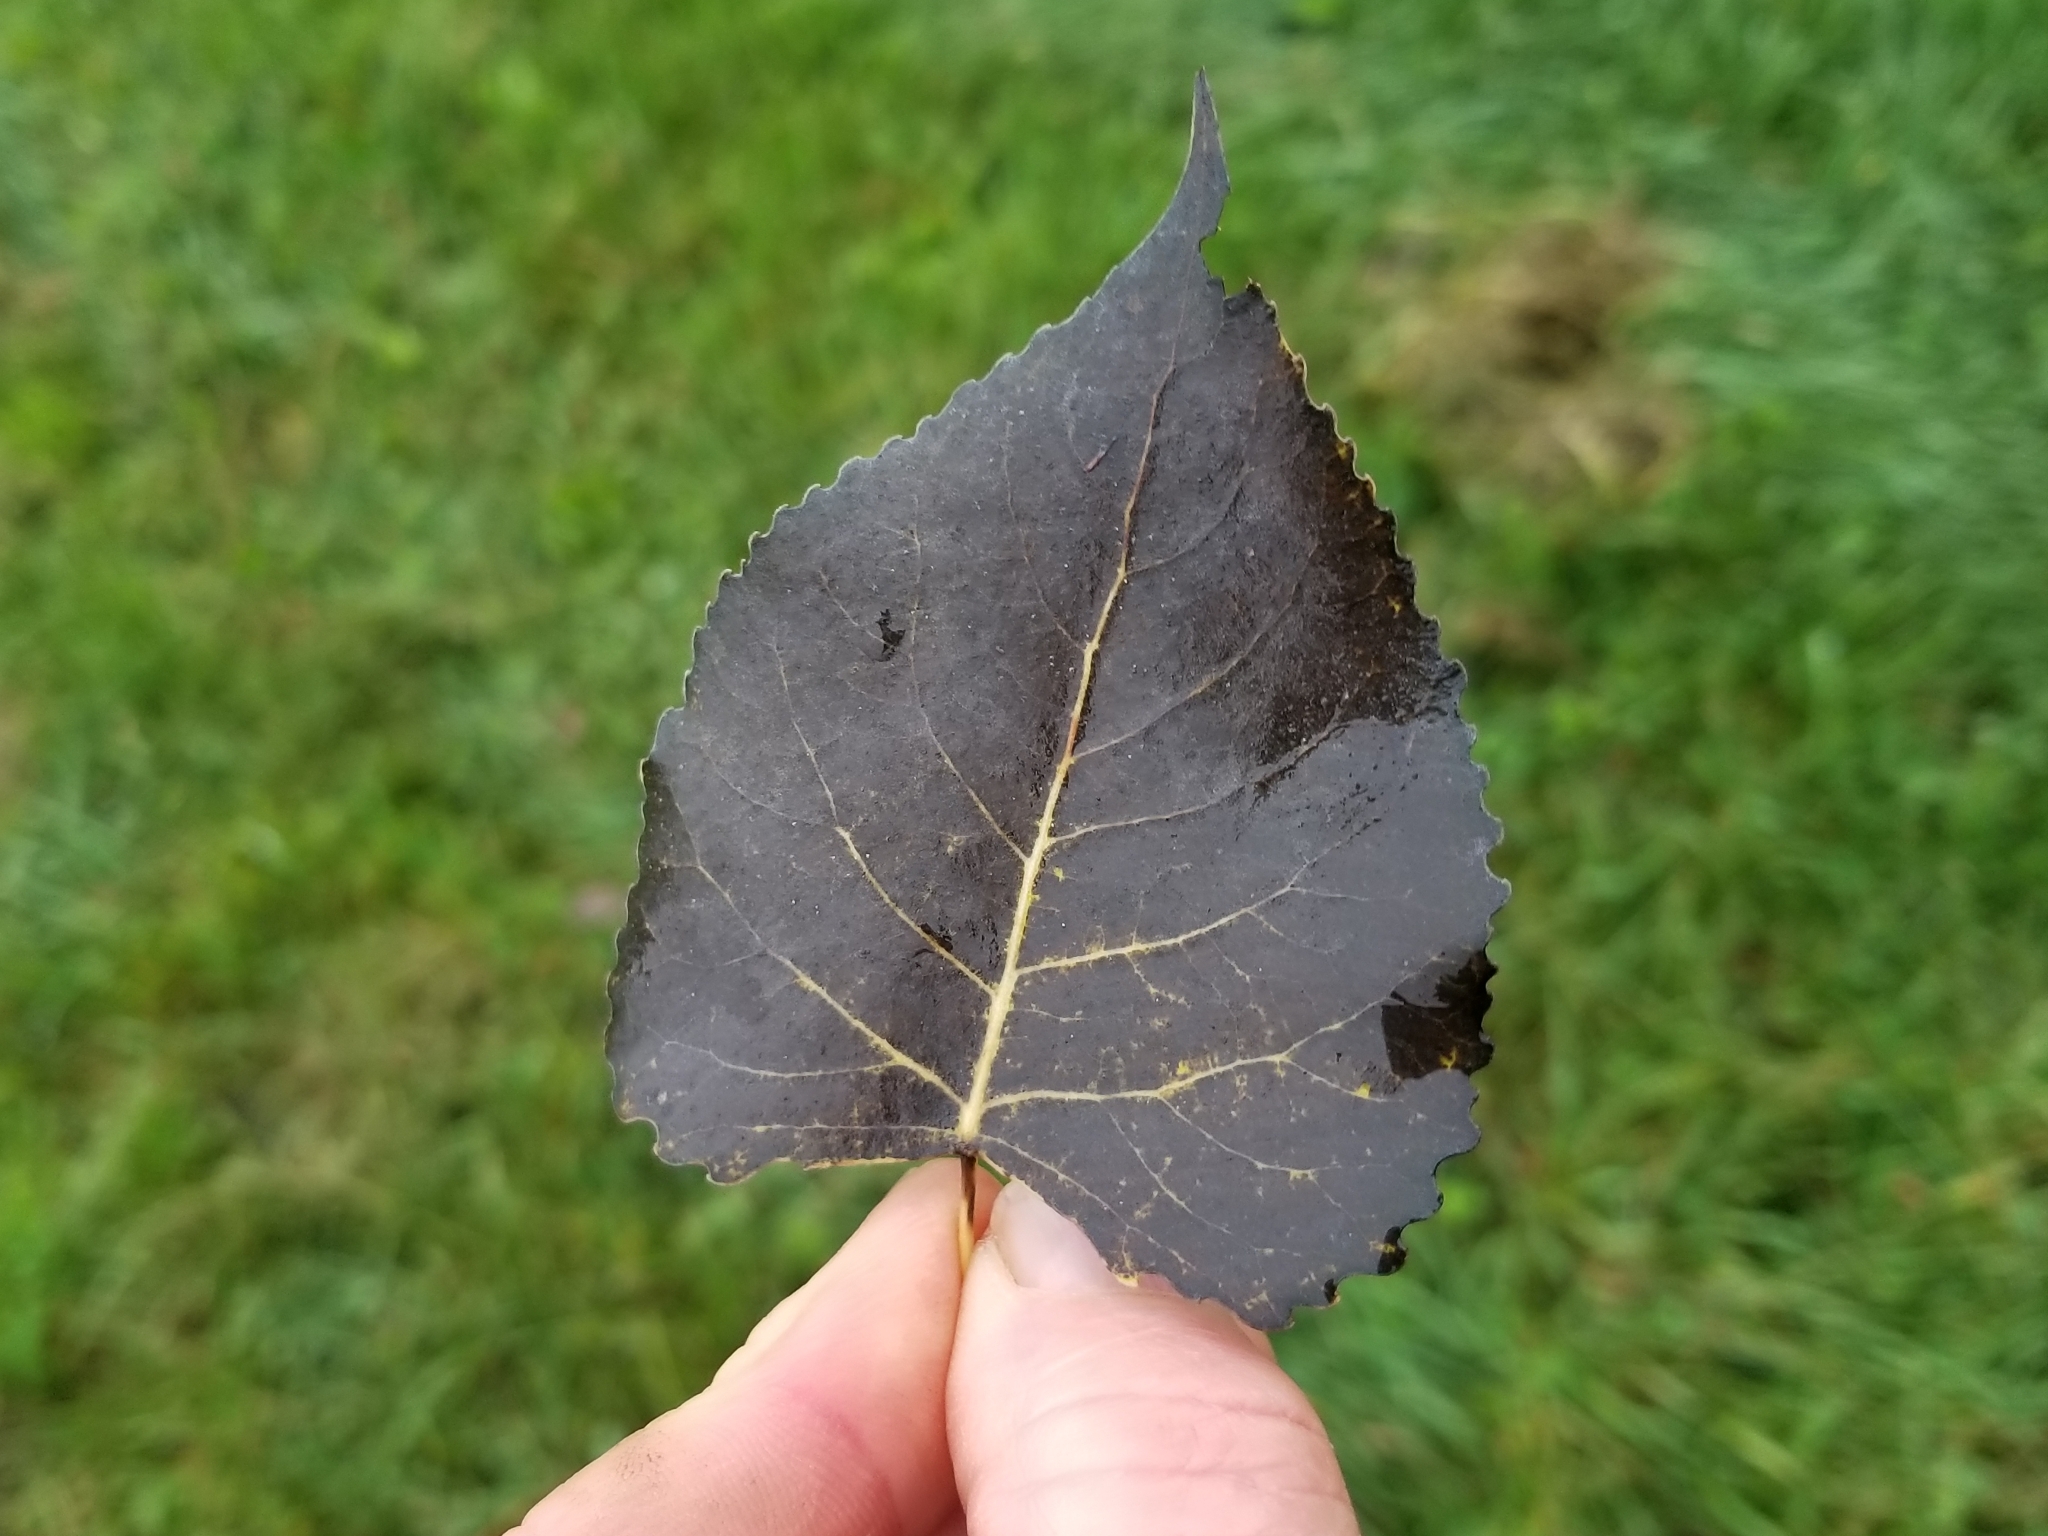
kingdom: Plantae
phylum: Tracheophyta
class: Magnoliopsida
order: Malpighiales
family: Salicaceae
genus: Populus
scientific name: Populus grandidentata
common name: Bigtooth aspen
